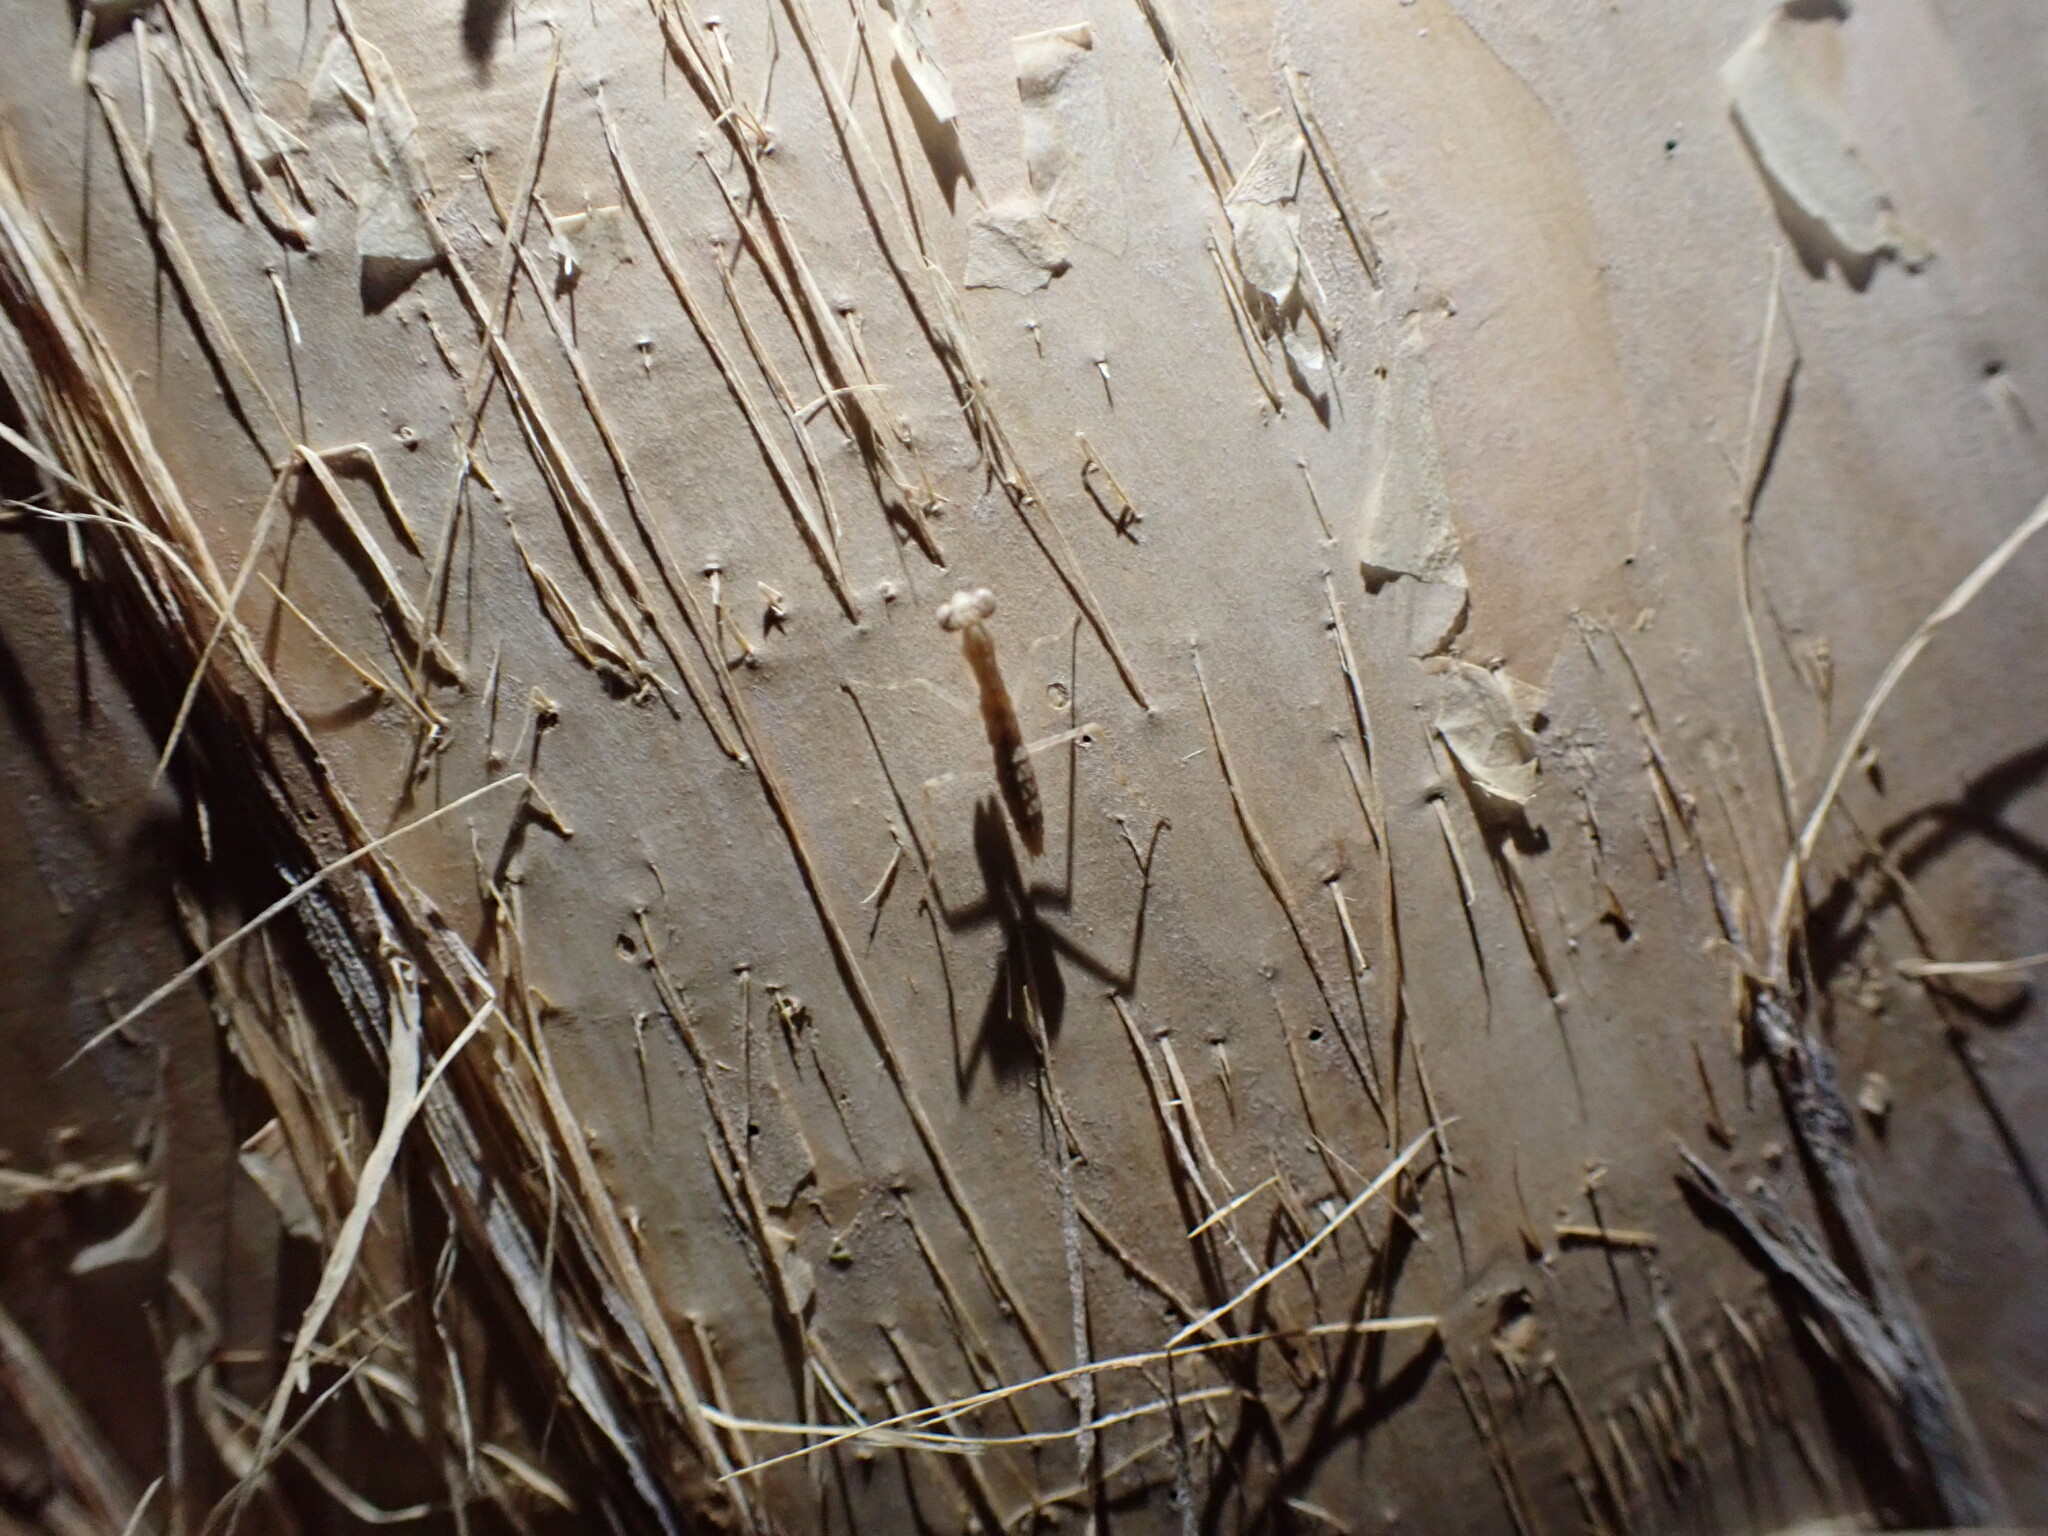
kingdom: Animalia
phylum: Arthropoda
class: Insecta
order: Mantodea
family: Nanomantidae
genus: Ima
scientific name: Ima fusca
